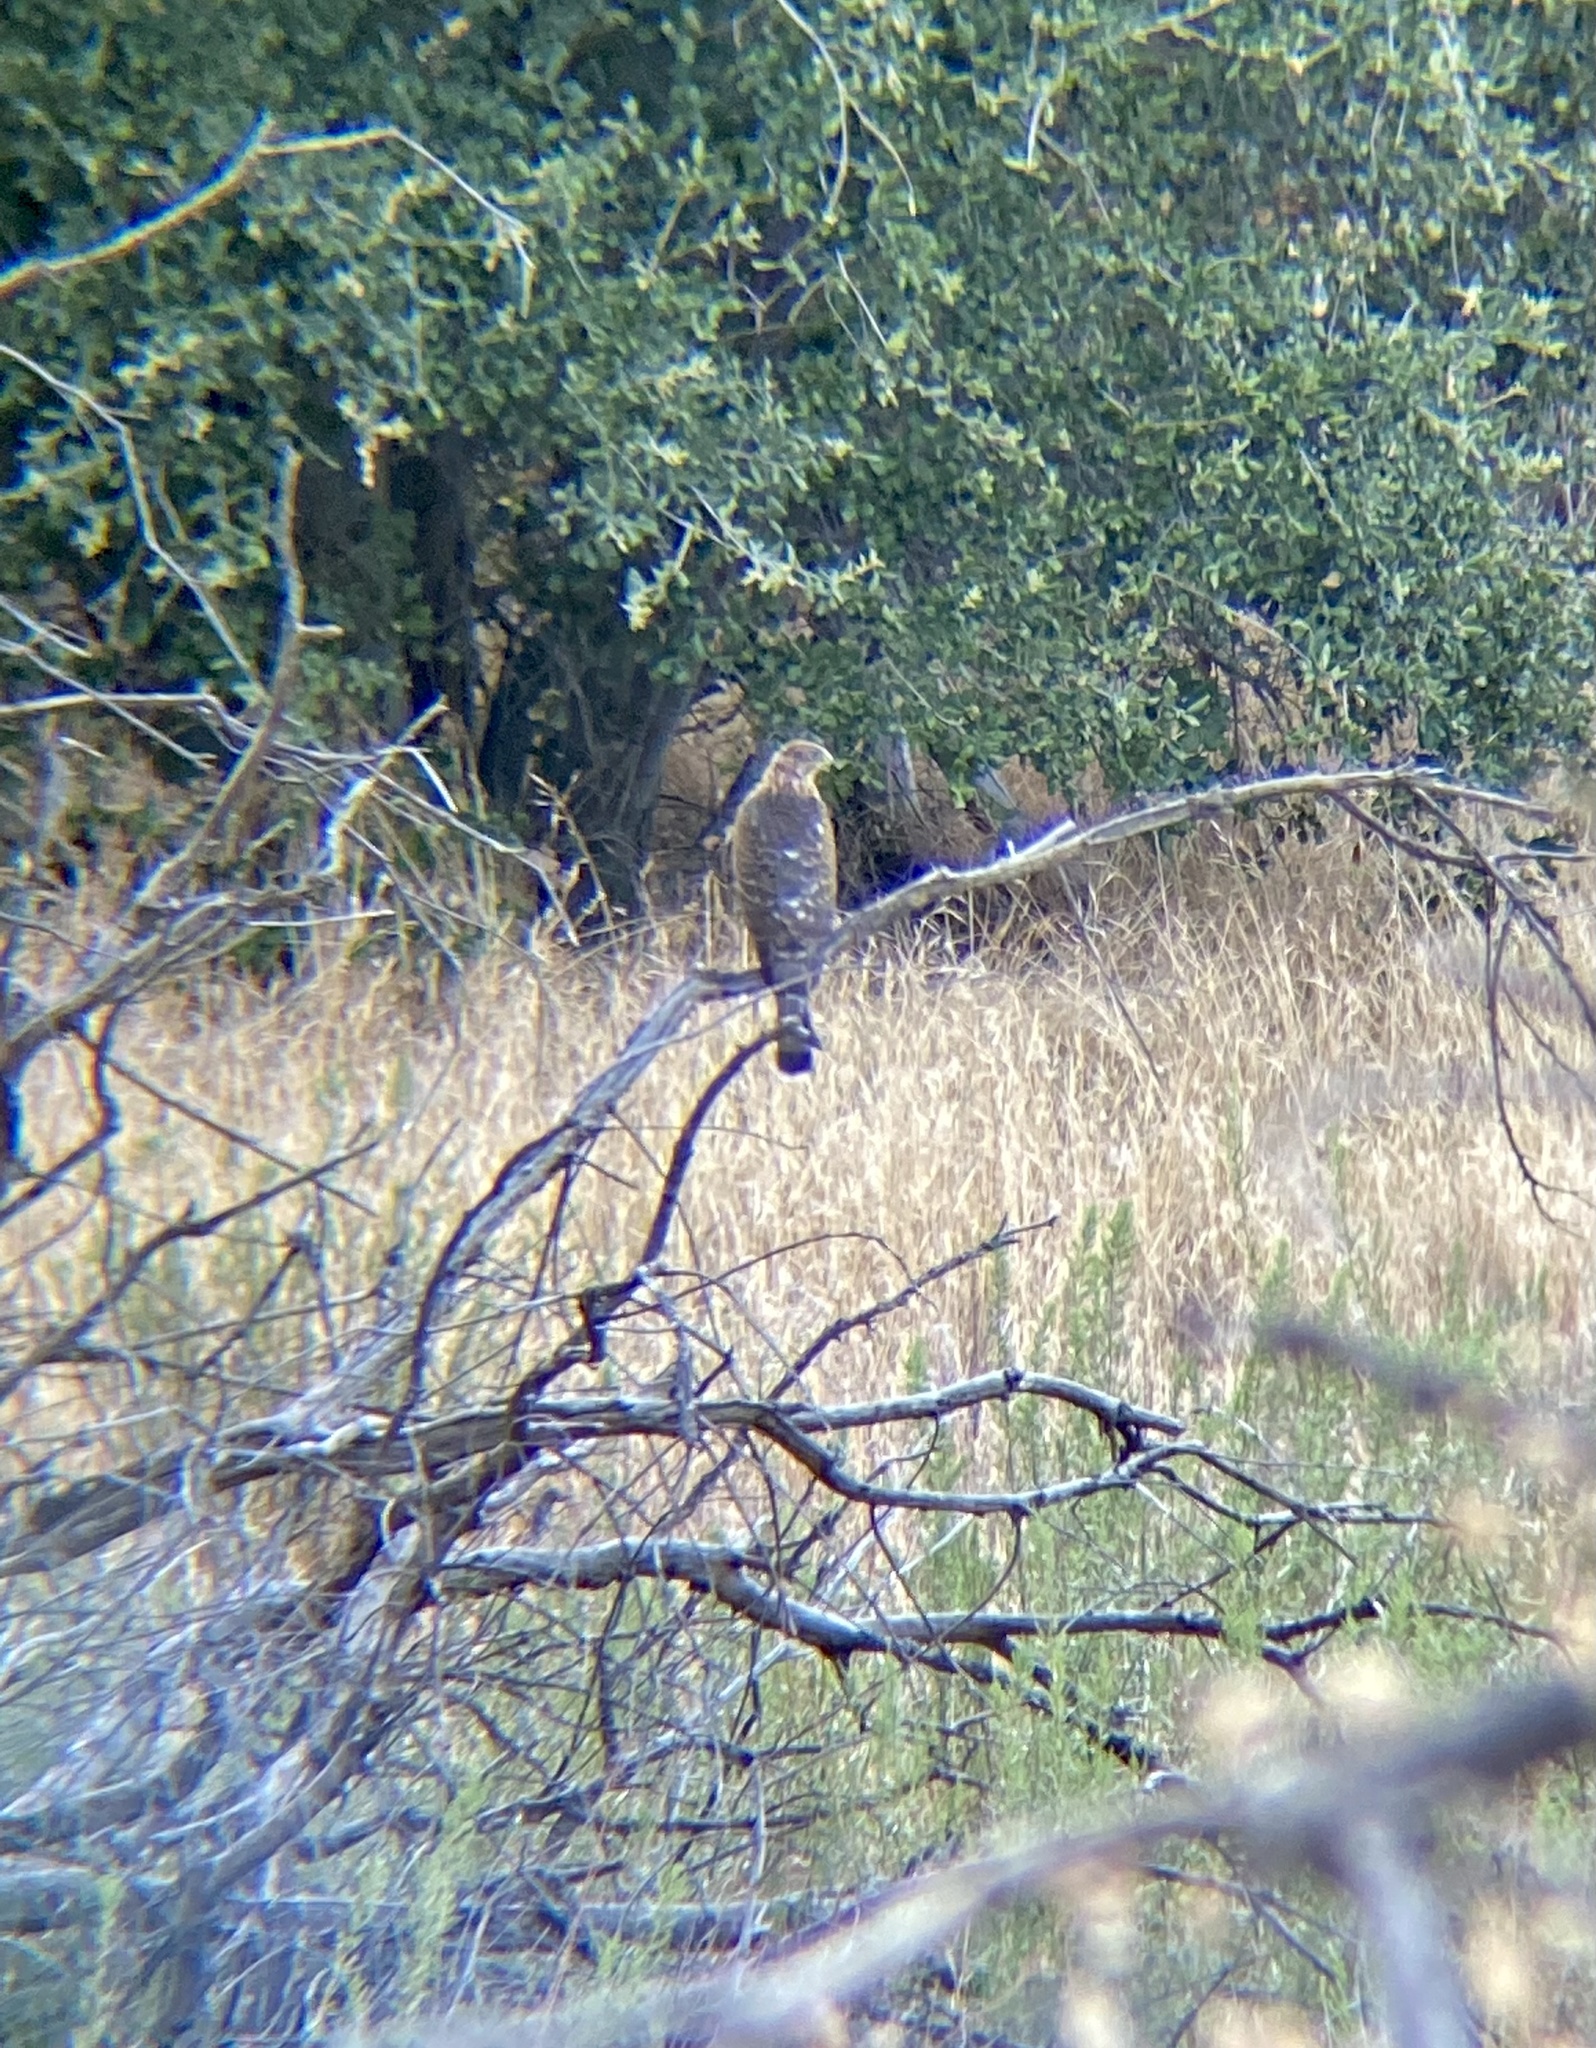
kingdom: Animalia
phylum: Chordata
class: Aves
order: Accipitriformes
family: Accipitridae
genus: Accipiter
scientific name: Accipiter cooperii
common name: Cooper's hawk
